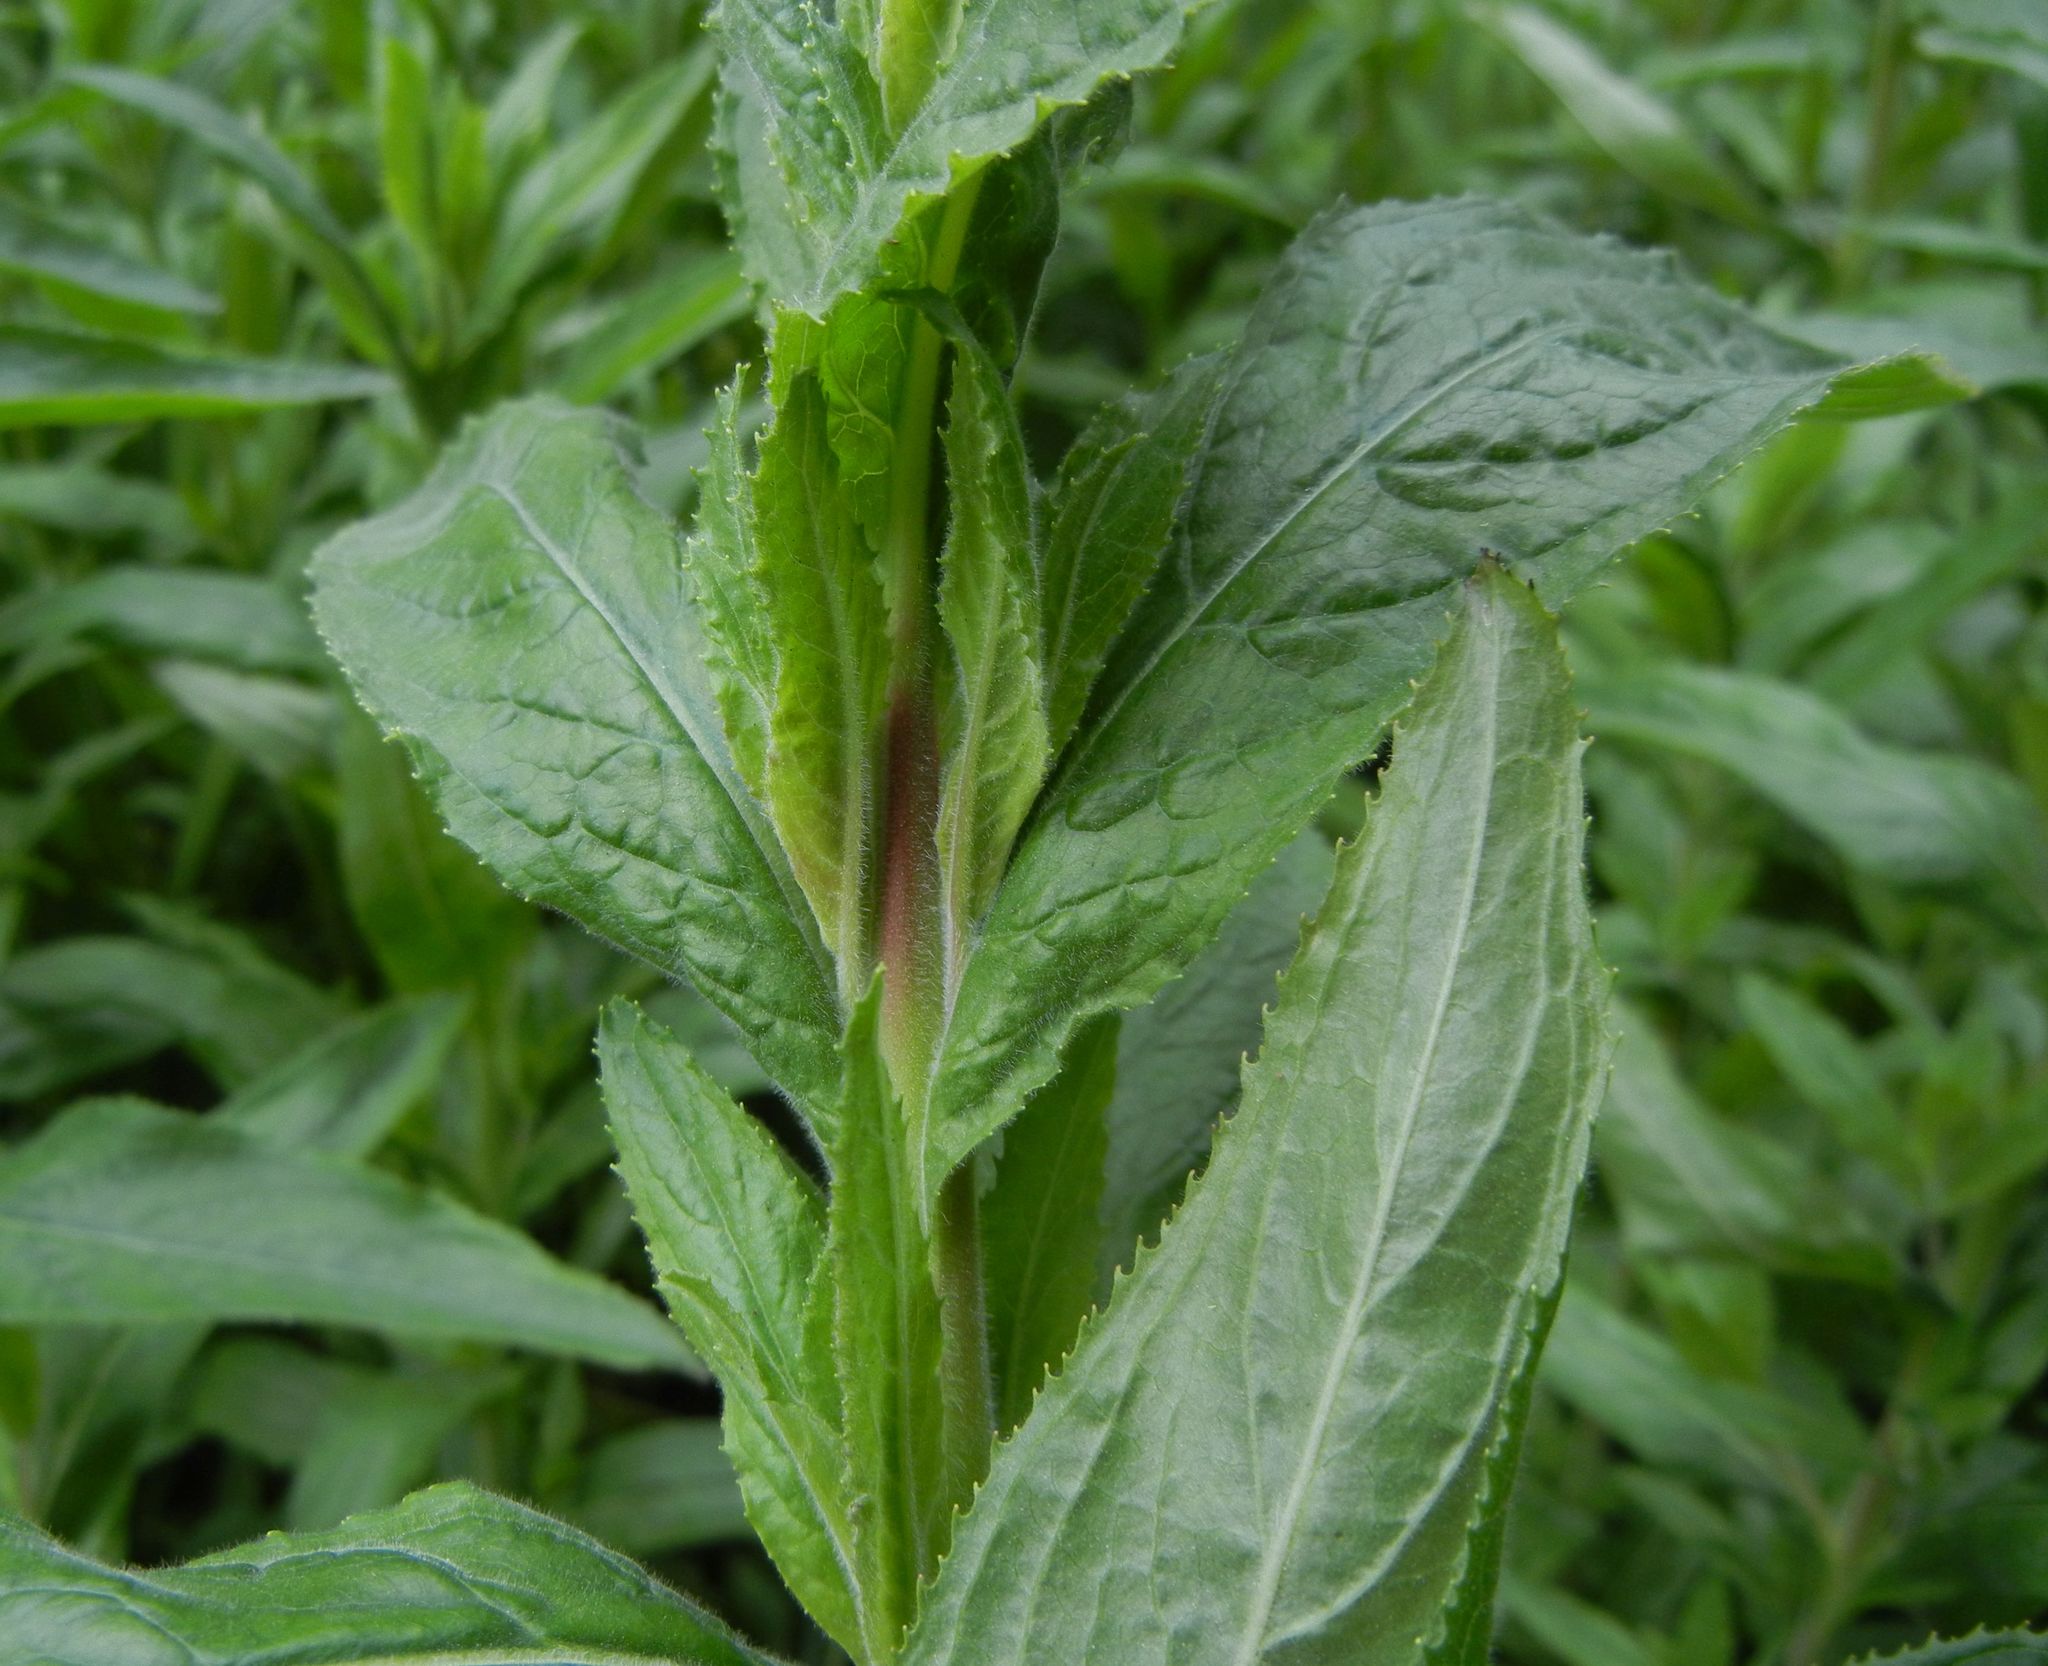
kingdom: Plantae
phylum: Tracheophyta
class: Magnoliopsida
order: Myrtales
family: Onagraceae
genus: Epilobium
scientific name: Epilobium hirsutum
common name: Great willowherb
